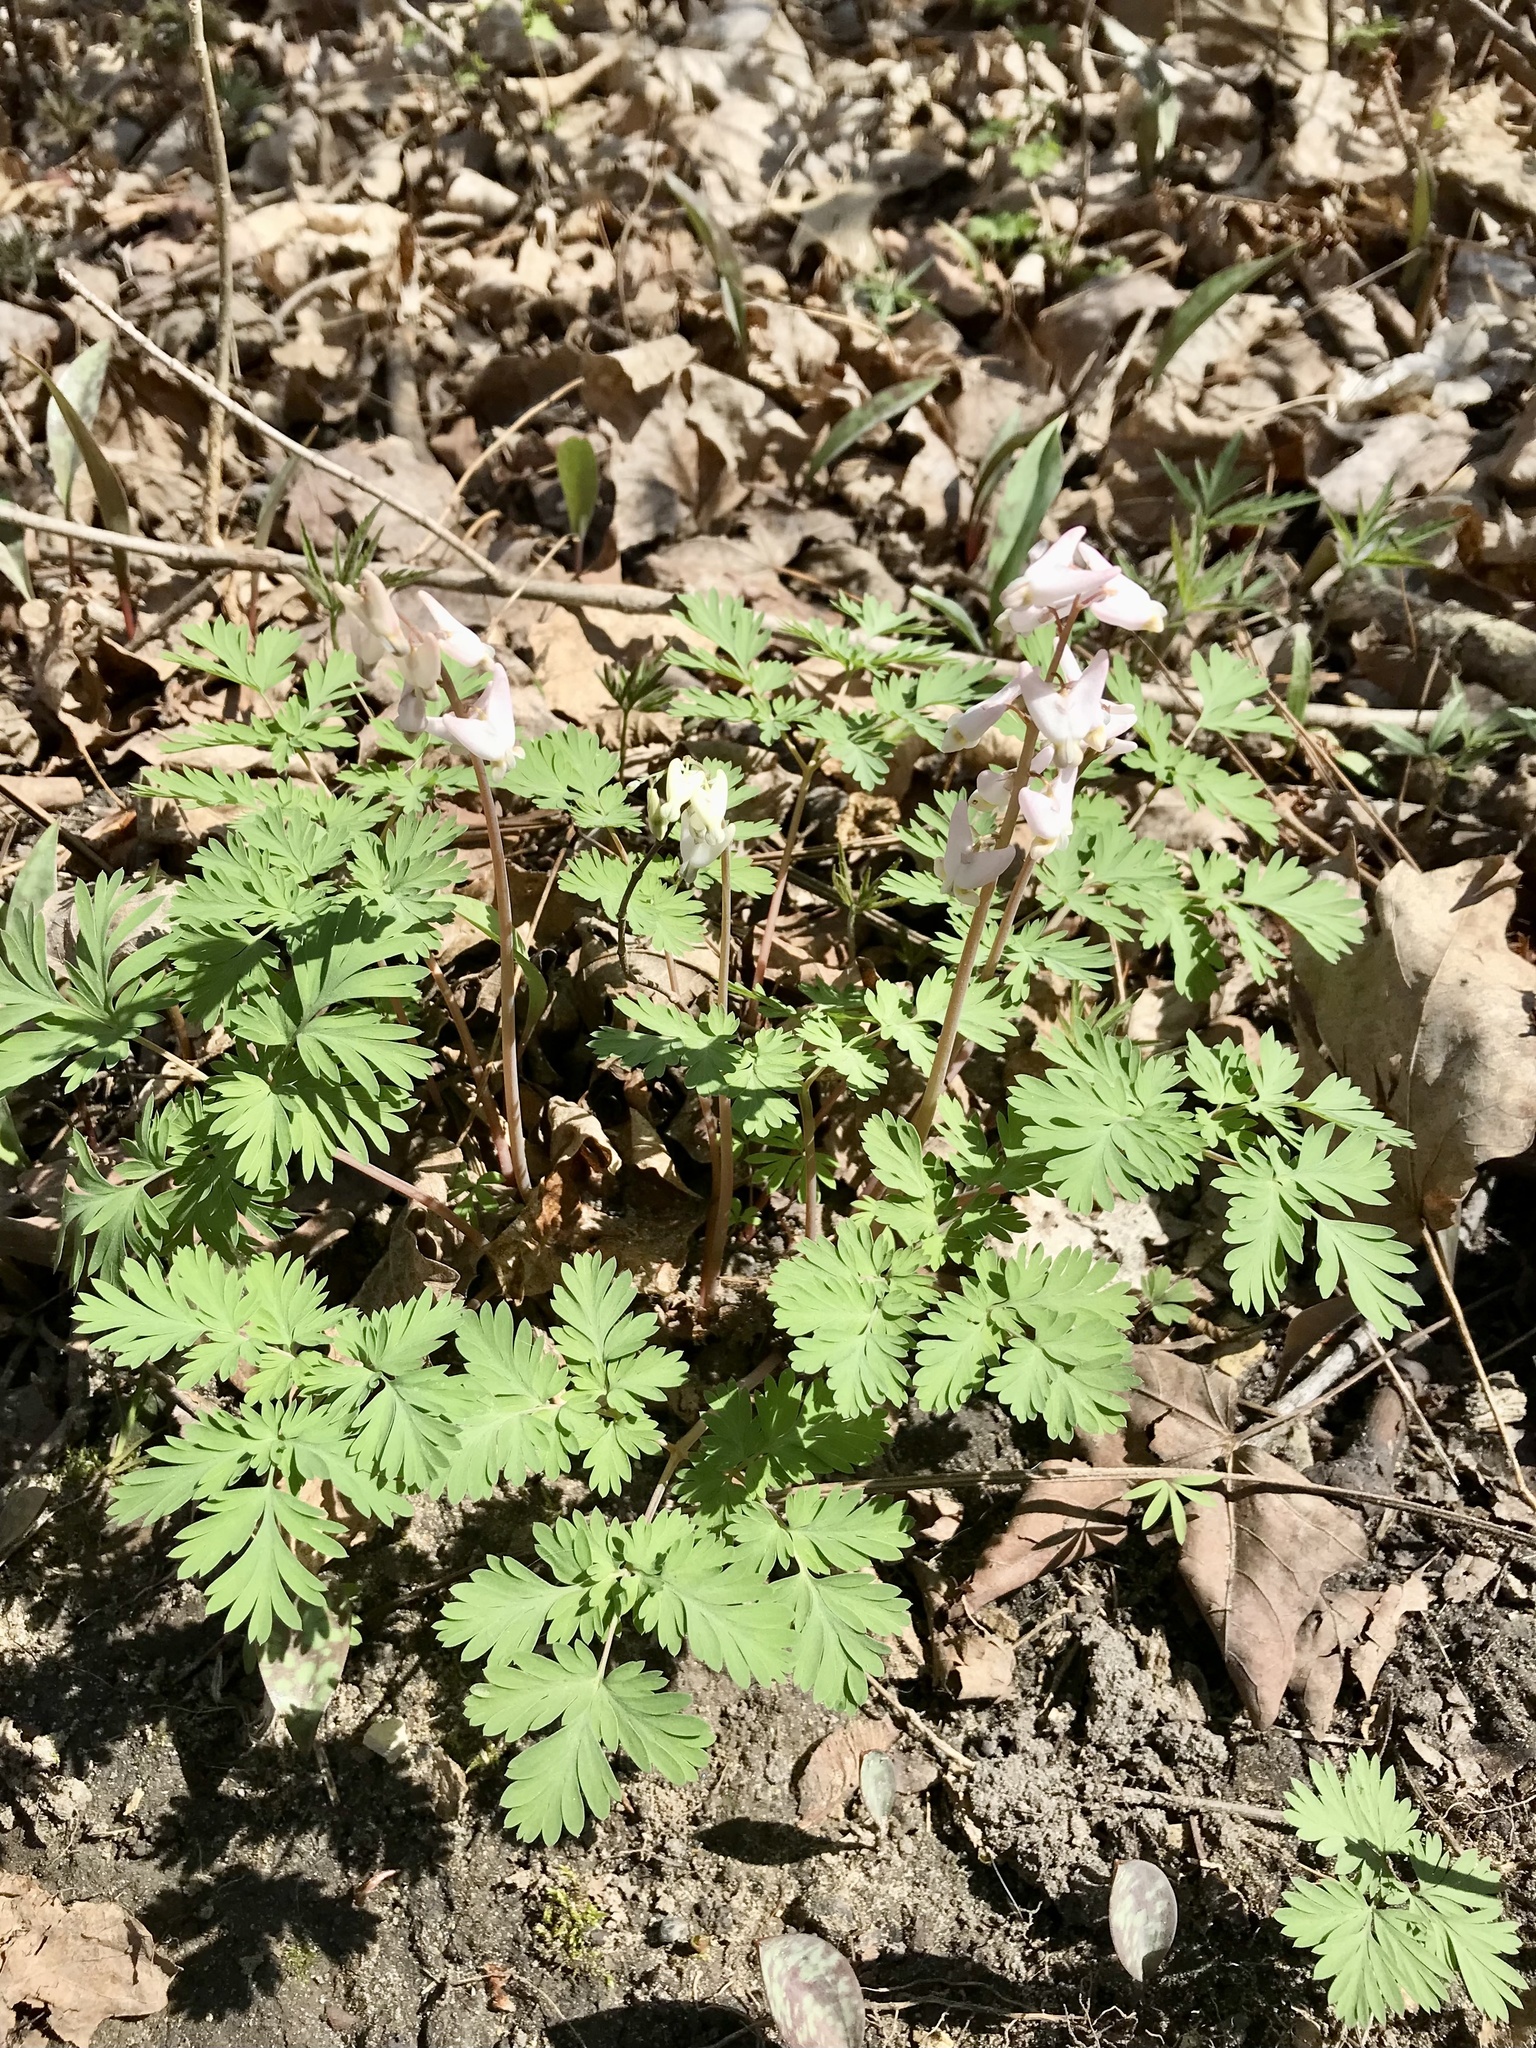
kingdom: Plantae
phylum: Tracheophyta
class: Magnoliopsida
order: Ranunculales
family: Papaveraceae
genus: Dicentra
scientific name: Dicentra cucullaria
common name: Dutchman's breeches
